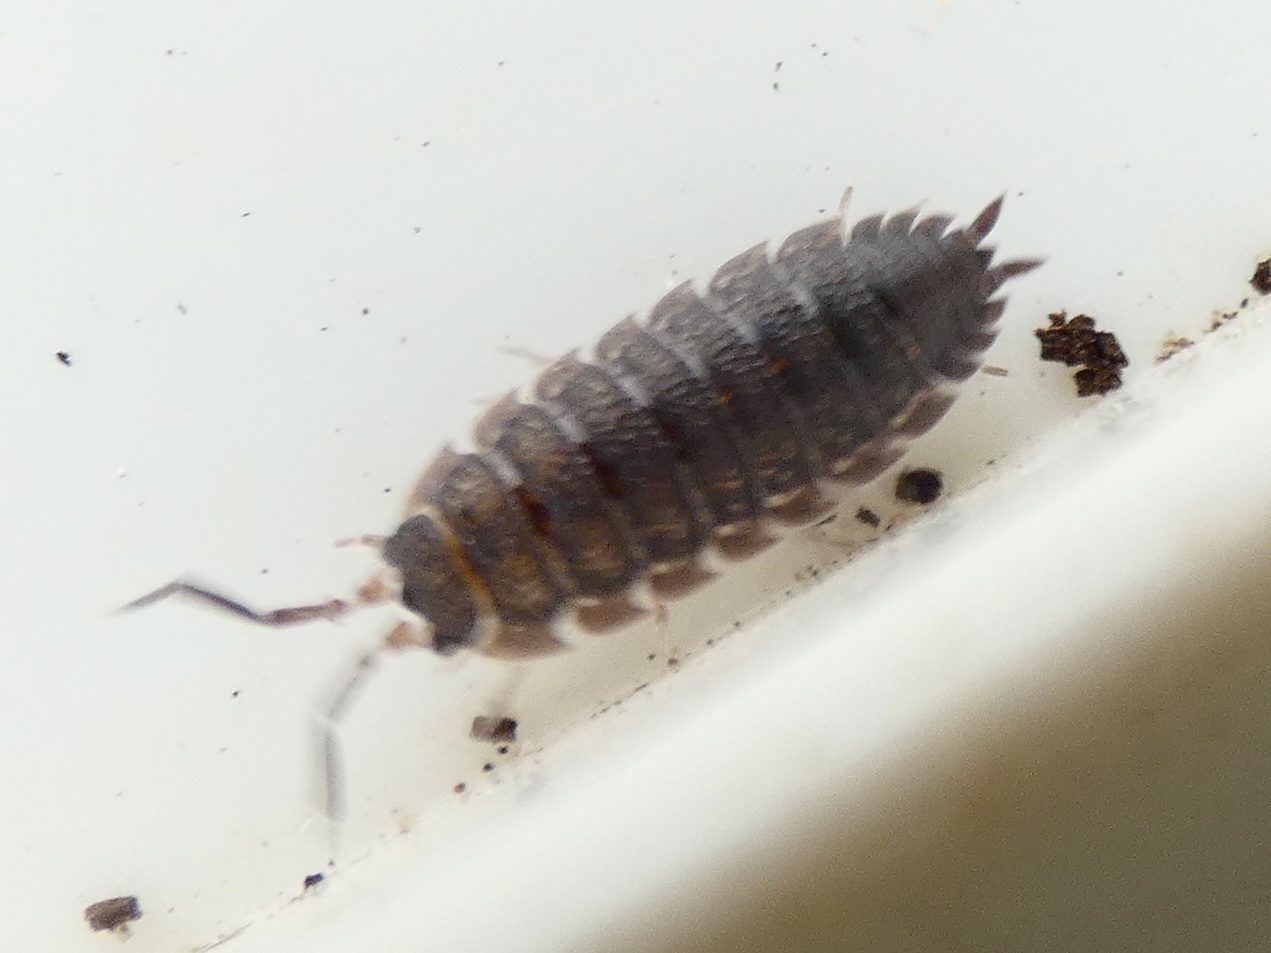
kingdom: Animalia
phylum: Arthropoda
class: Malacostraca
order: Isopoda
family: Porcellionidae
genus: Porcellio
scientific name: Porcellio scaber
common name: Common rough woodlouse
